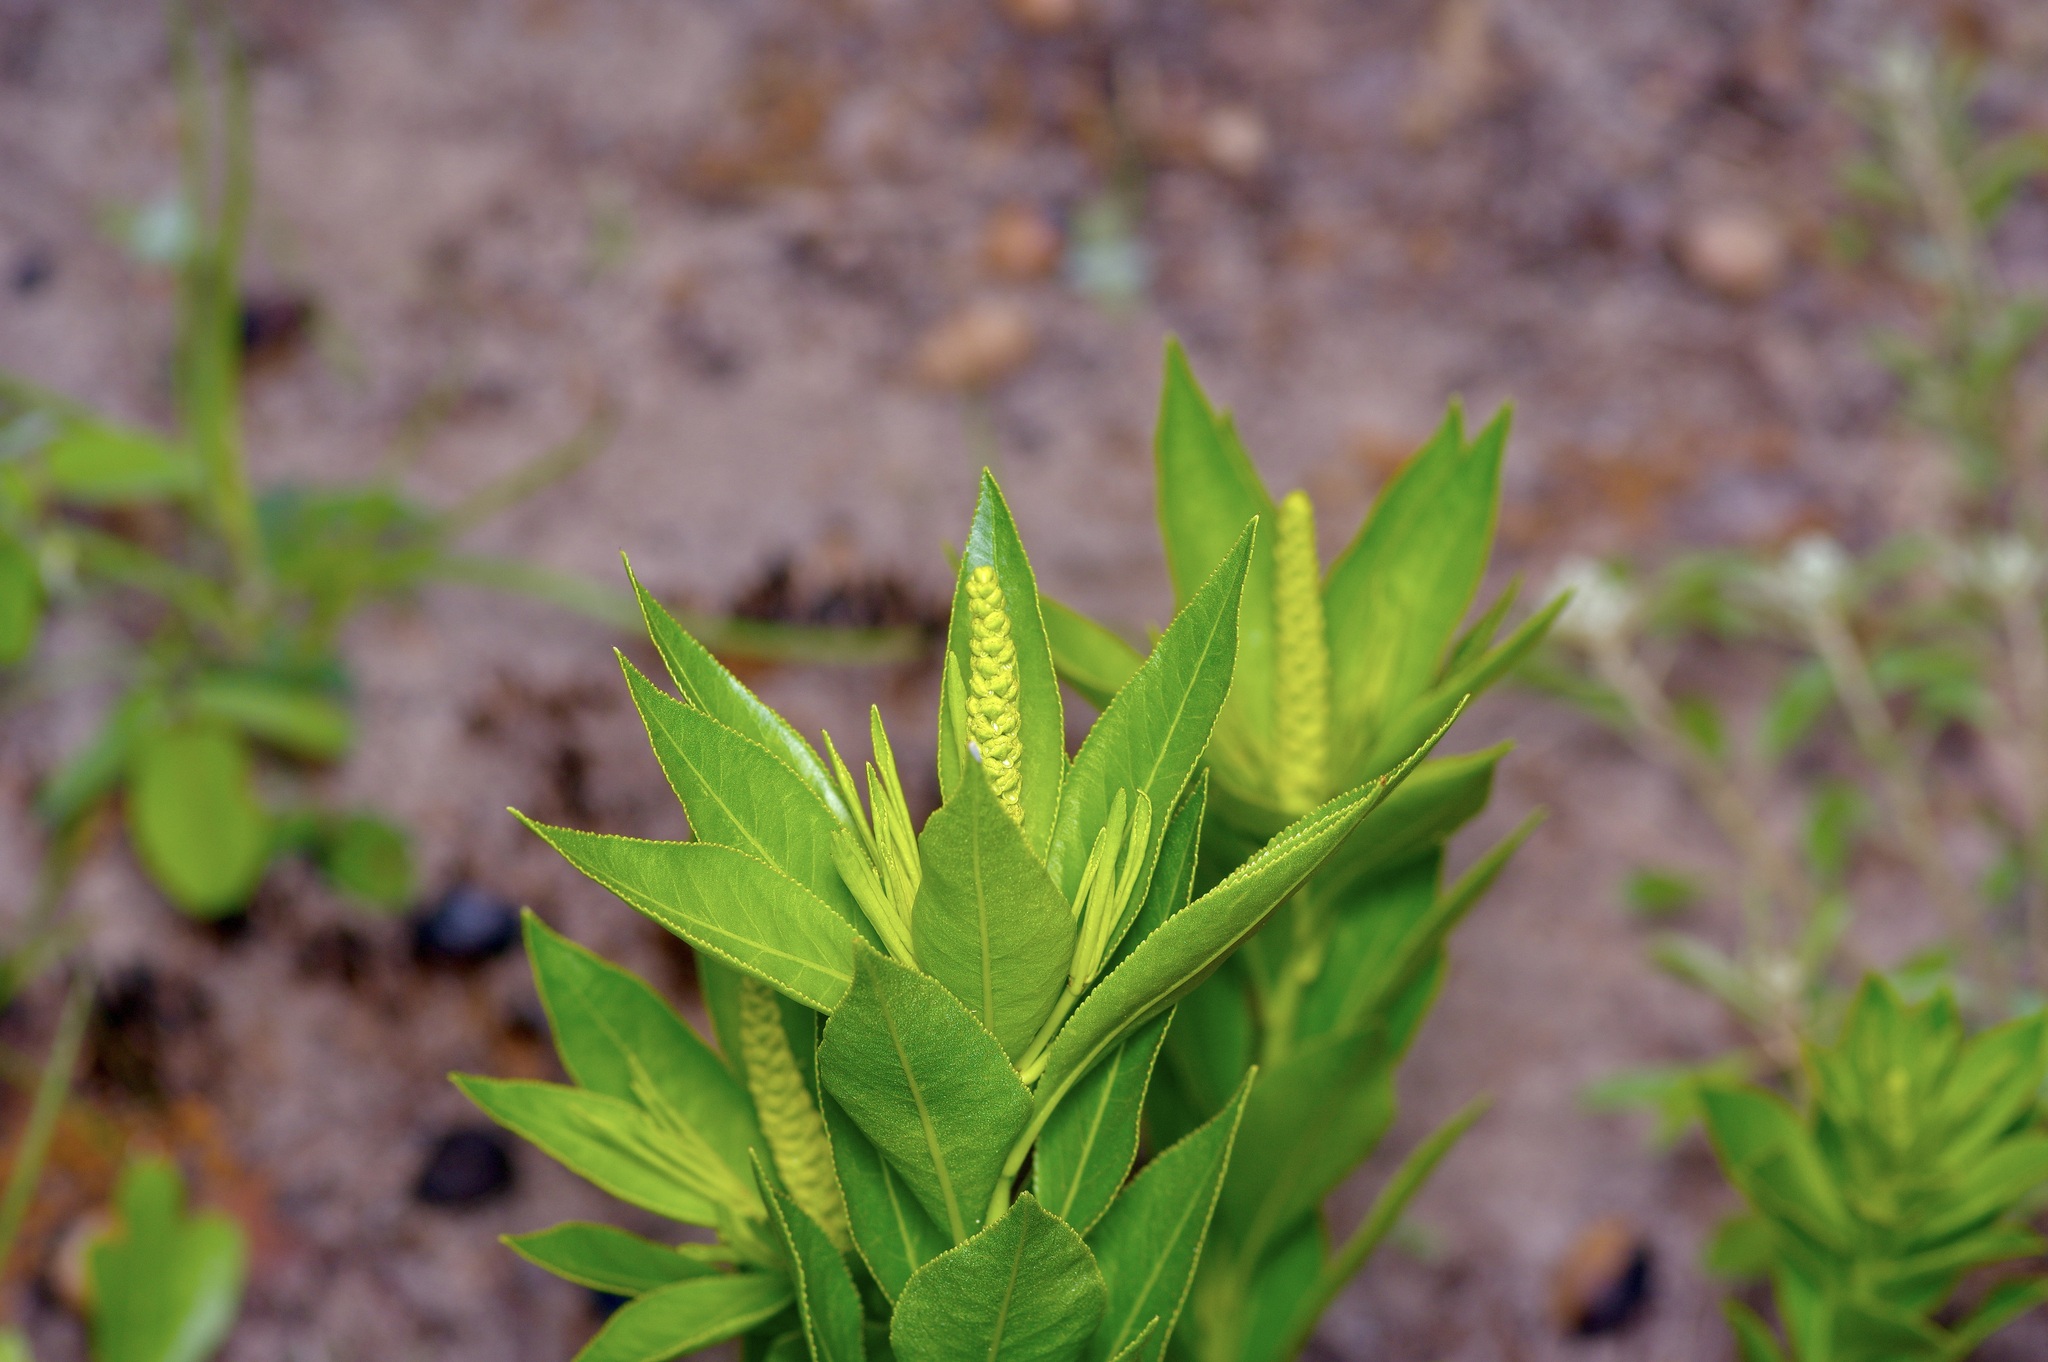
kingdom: Plantae
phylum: Tracheophyta
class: Magnoliopsida
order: Malpighiales
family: Euphorbiaceae
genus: Stillingia
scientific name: Stillingia sylvatica
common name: Queen's-delight
